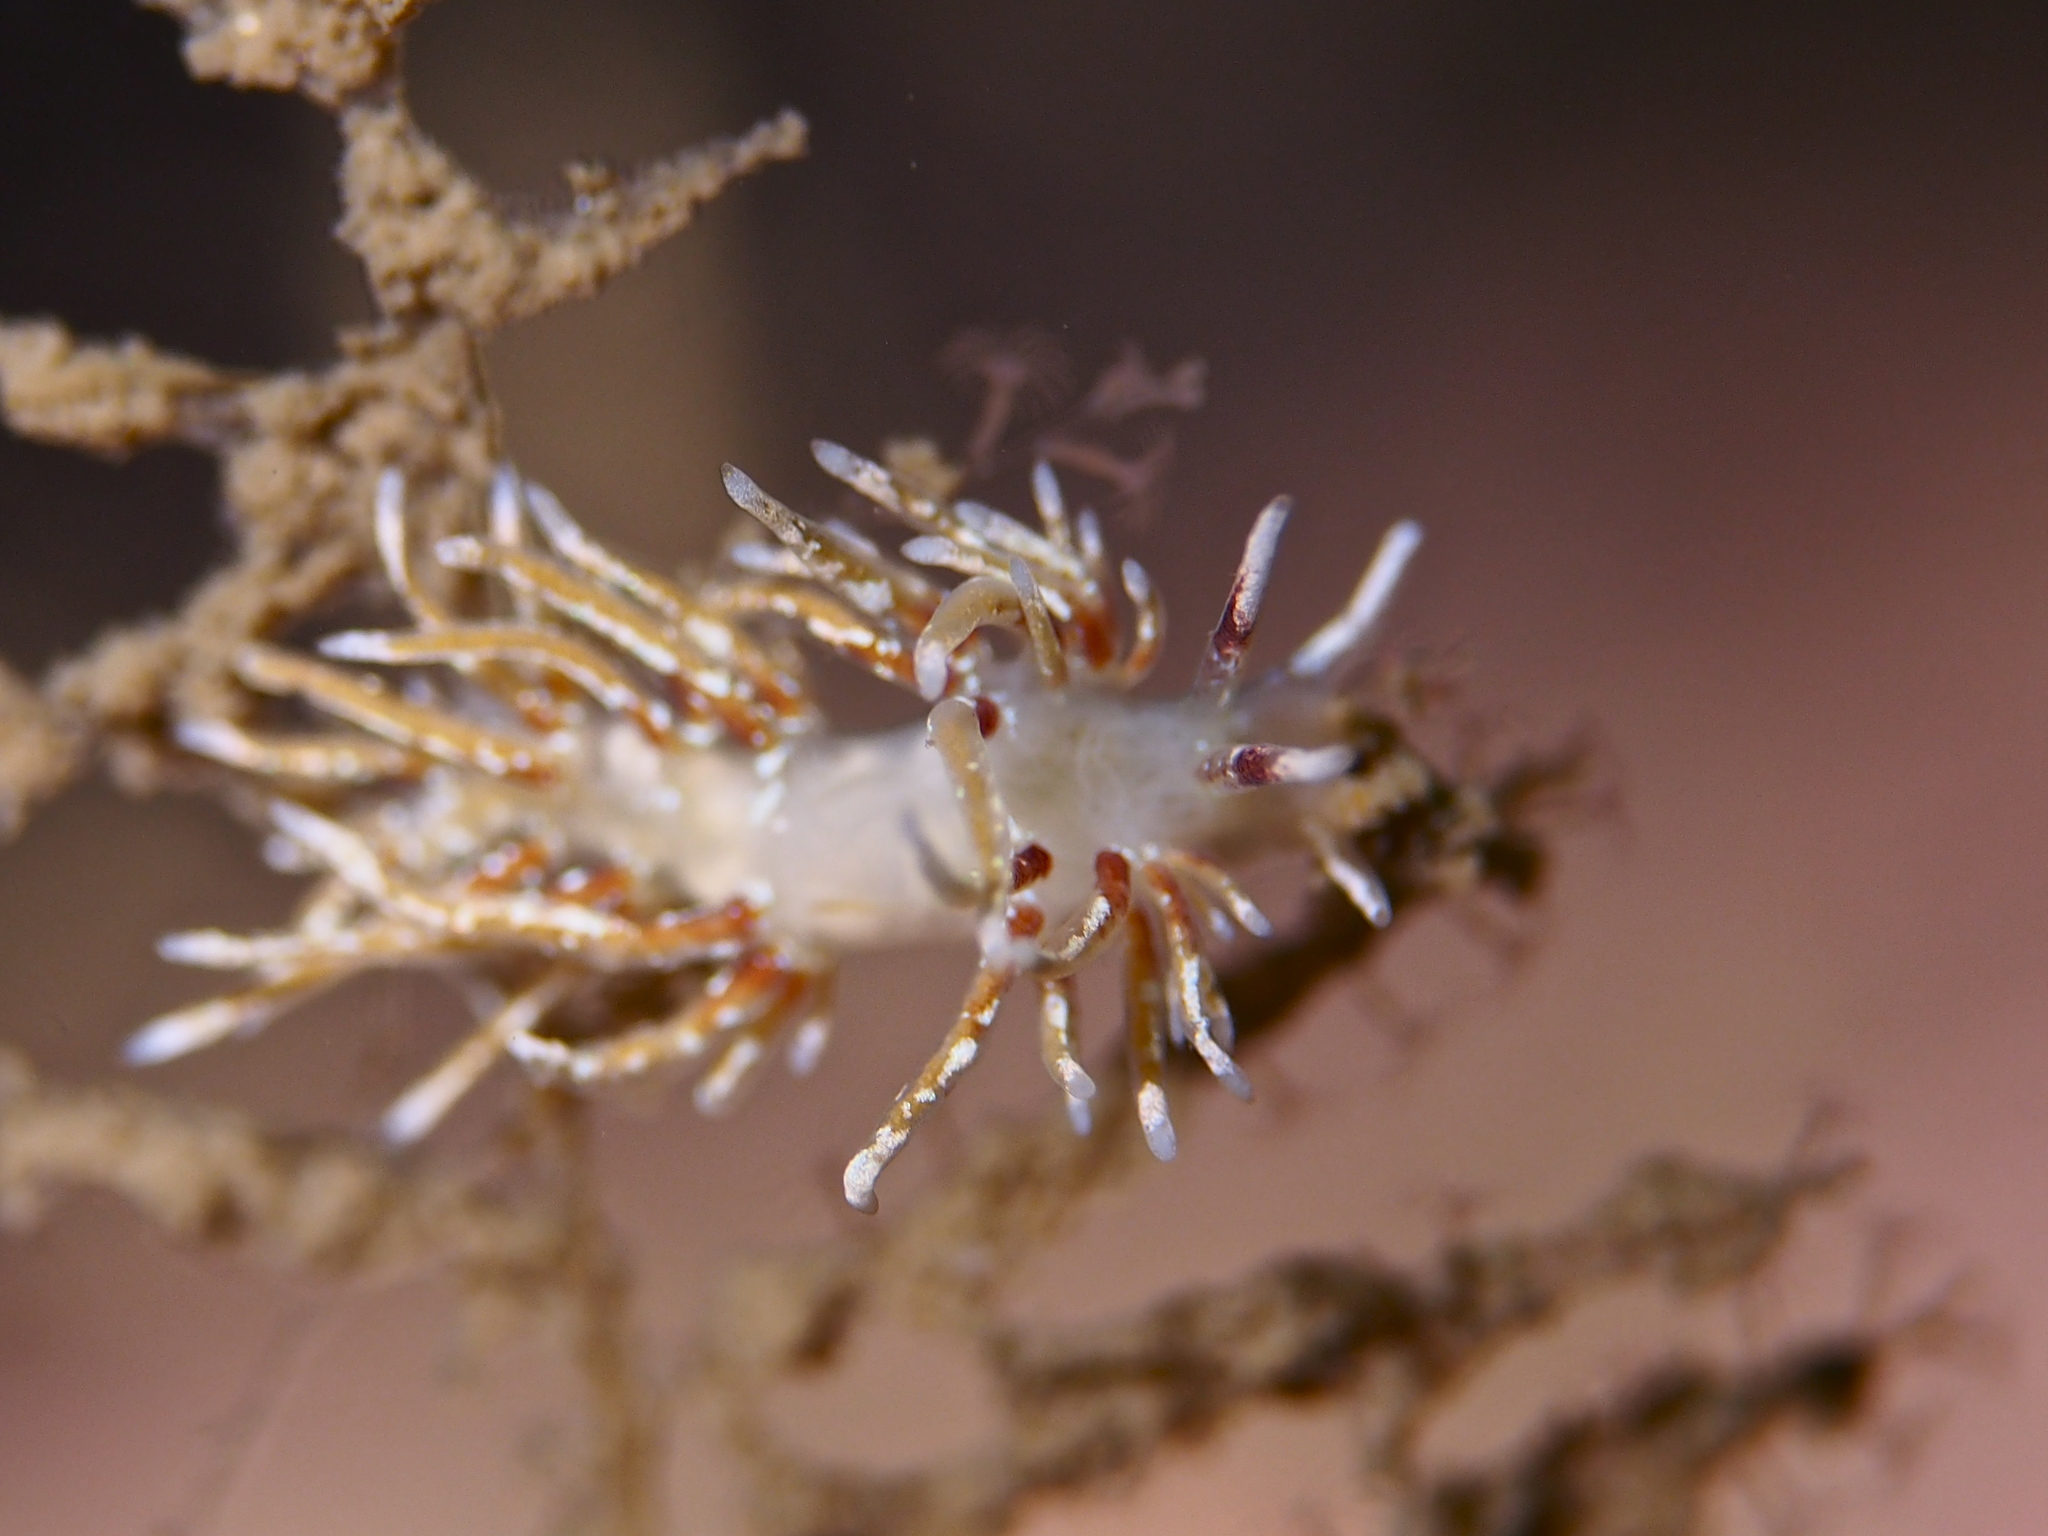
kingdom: Animalia
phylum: Mollusca
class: Gastropoda
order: Nudibranchia
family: Trinchesiidae
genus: Rubramoena
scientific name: Rubramoena rubescens
